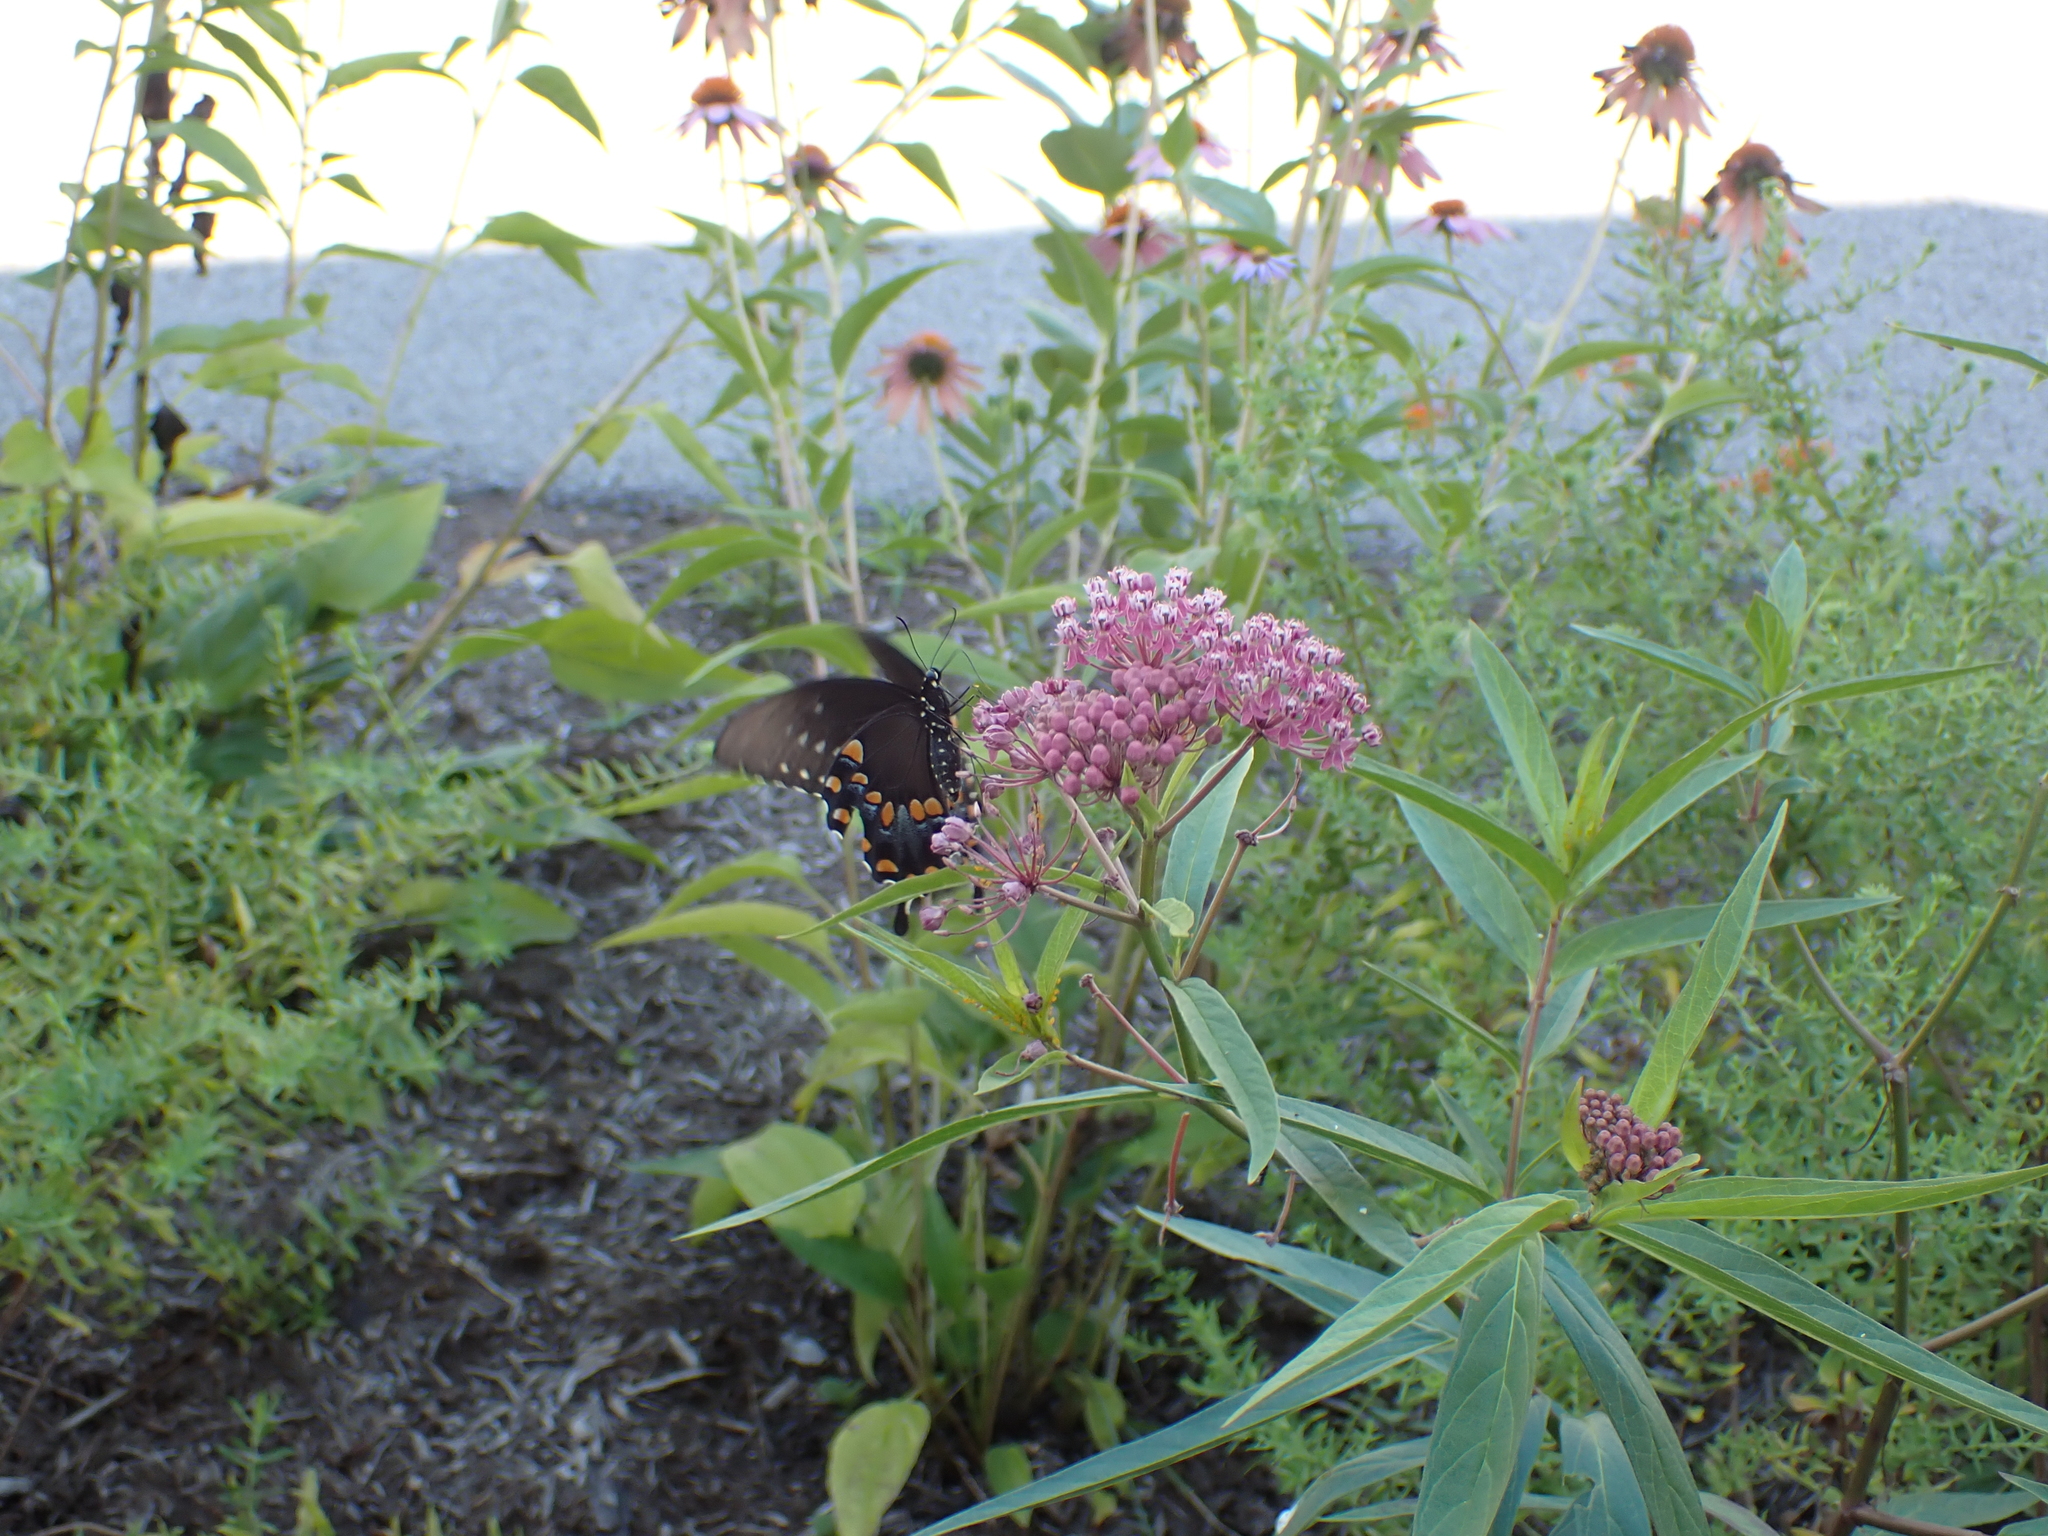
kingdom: Animalia
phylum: Arthropoda
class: Insecta
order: Lepidoptera
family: Papilionidae
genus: Papilio
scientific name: Papilio troilus
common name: Spicebush swallowtail
